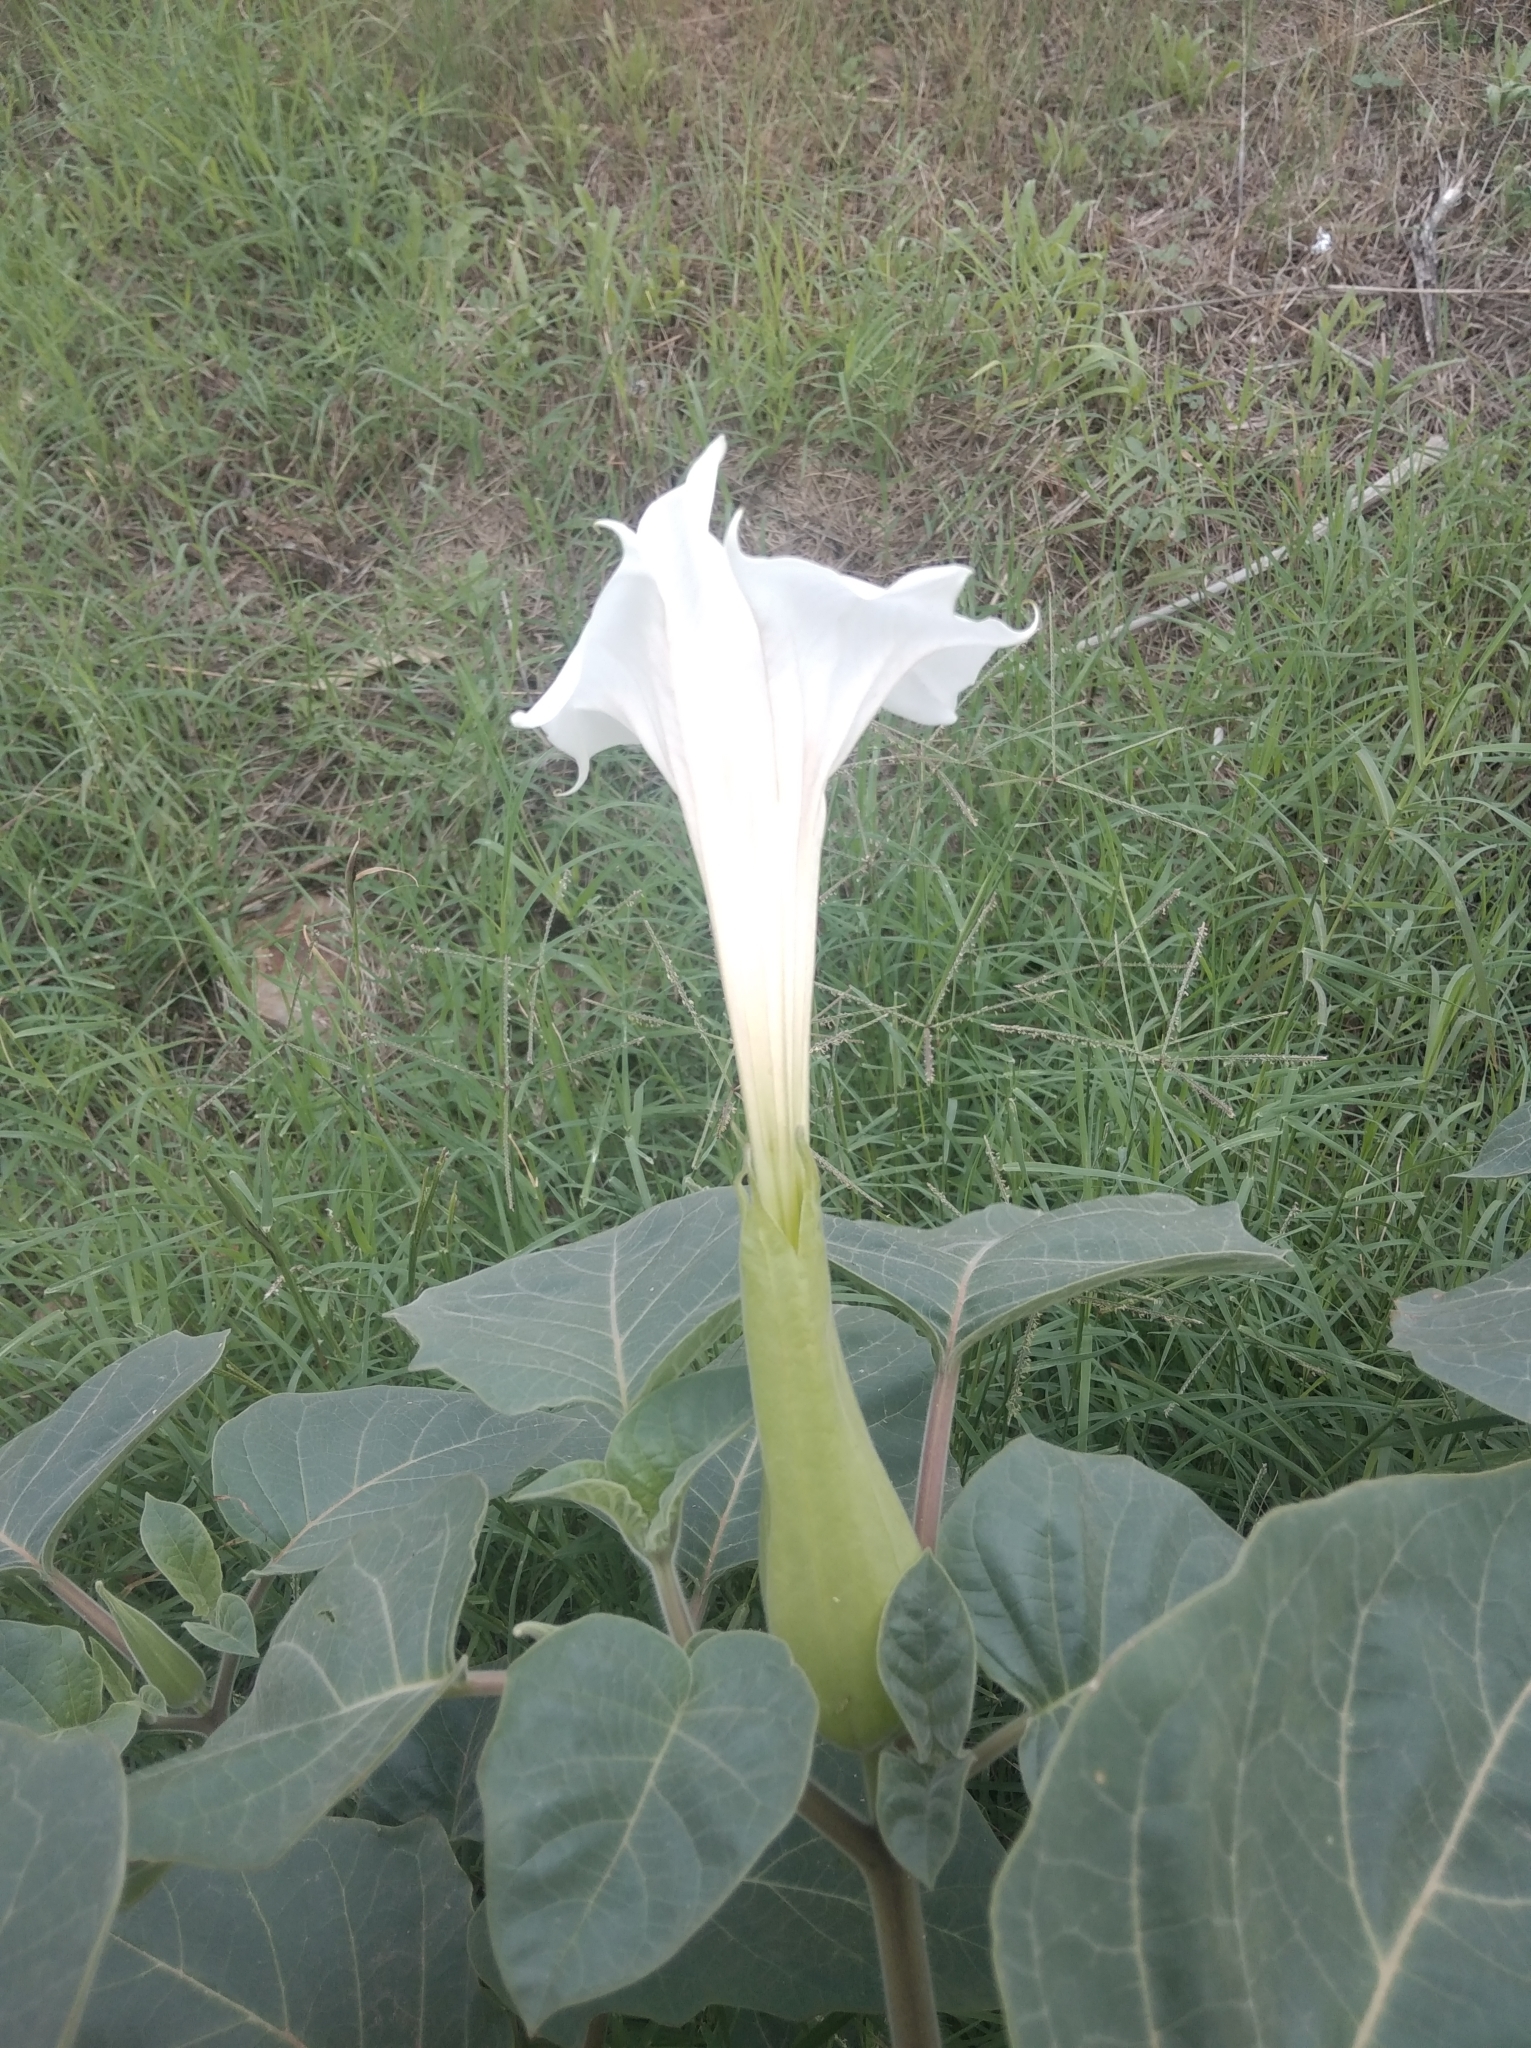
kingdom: Plantae
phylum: Tracheophyta
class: Magnoliopsida
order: Solanales
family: Solanaceae
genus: Datura
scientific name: Datura innoxia
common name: Downy thorn-apple
